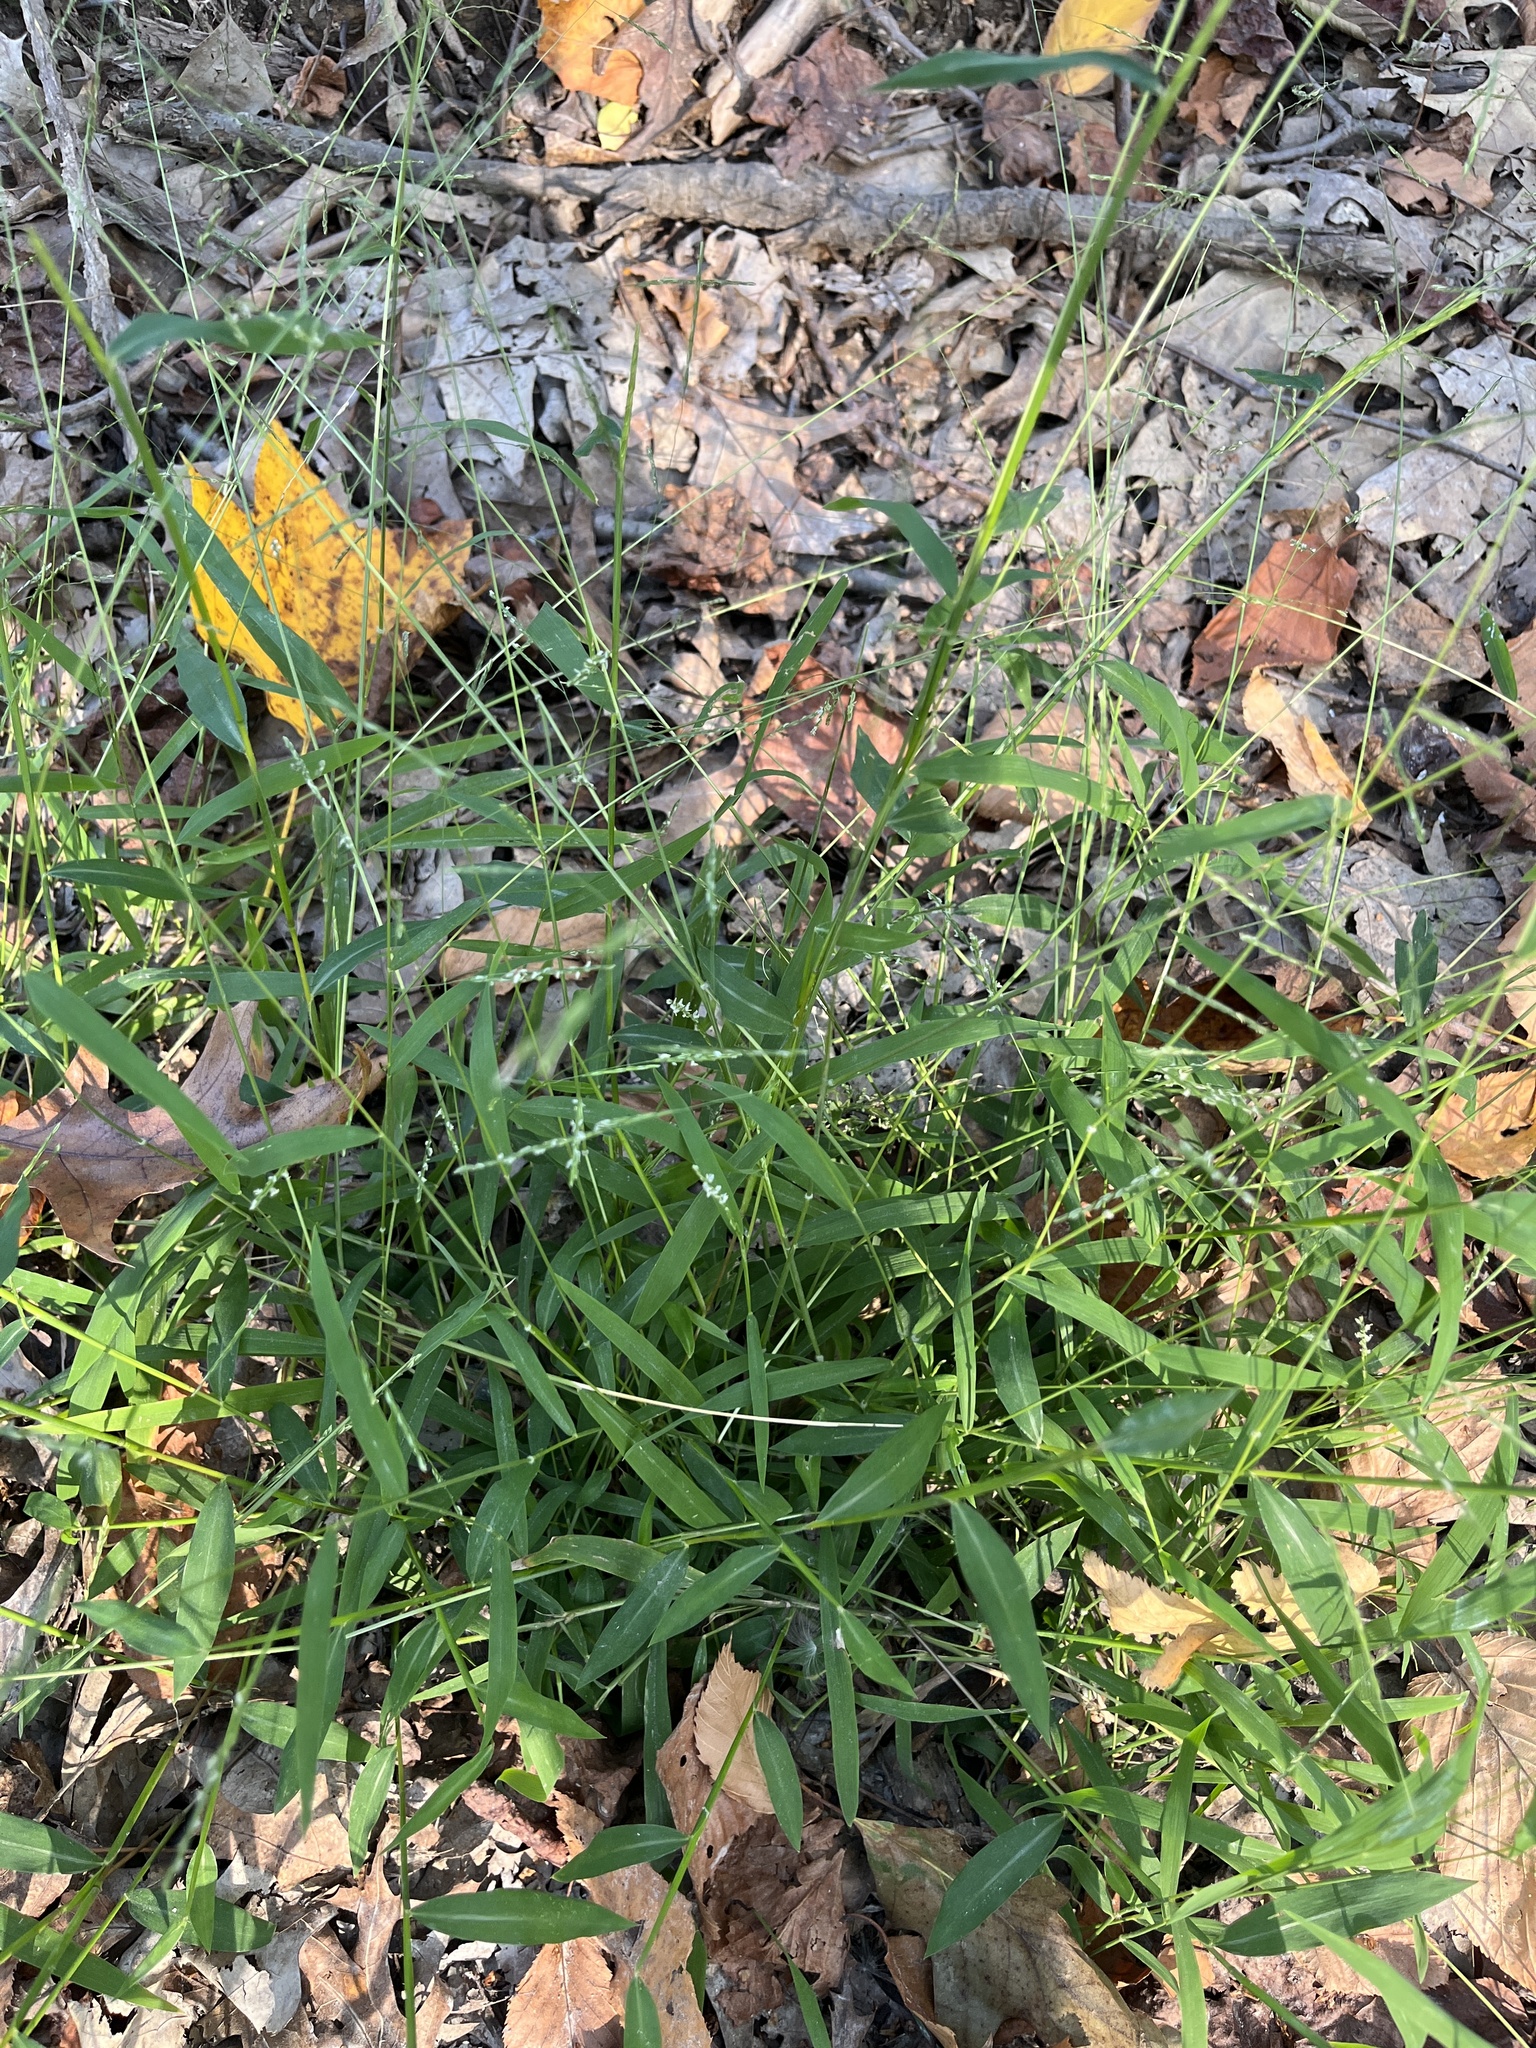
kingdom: Plantae
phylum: Tracheophyta
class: Liliopsida
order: Poales
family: Poaceae
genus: Leersia
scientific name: Leersia virginica
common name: White cutgrass
